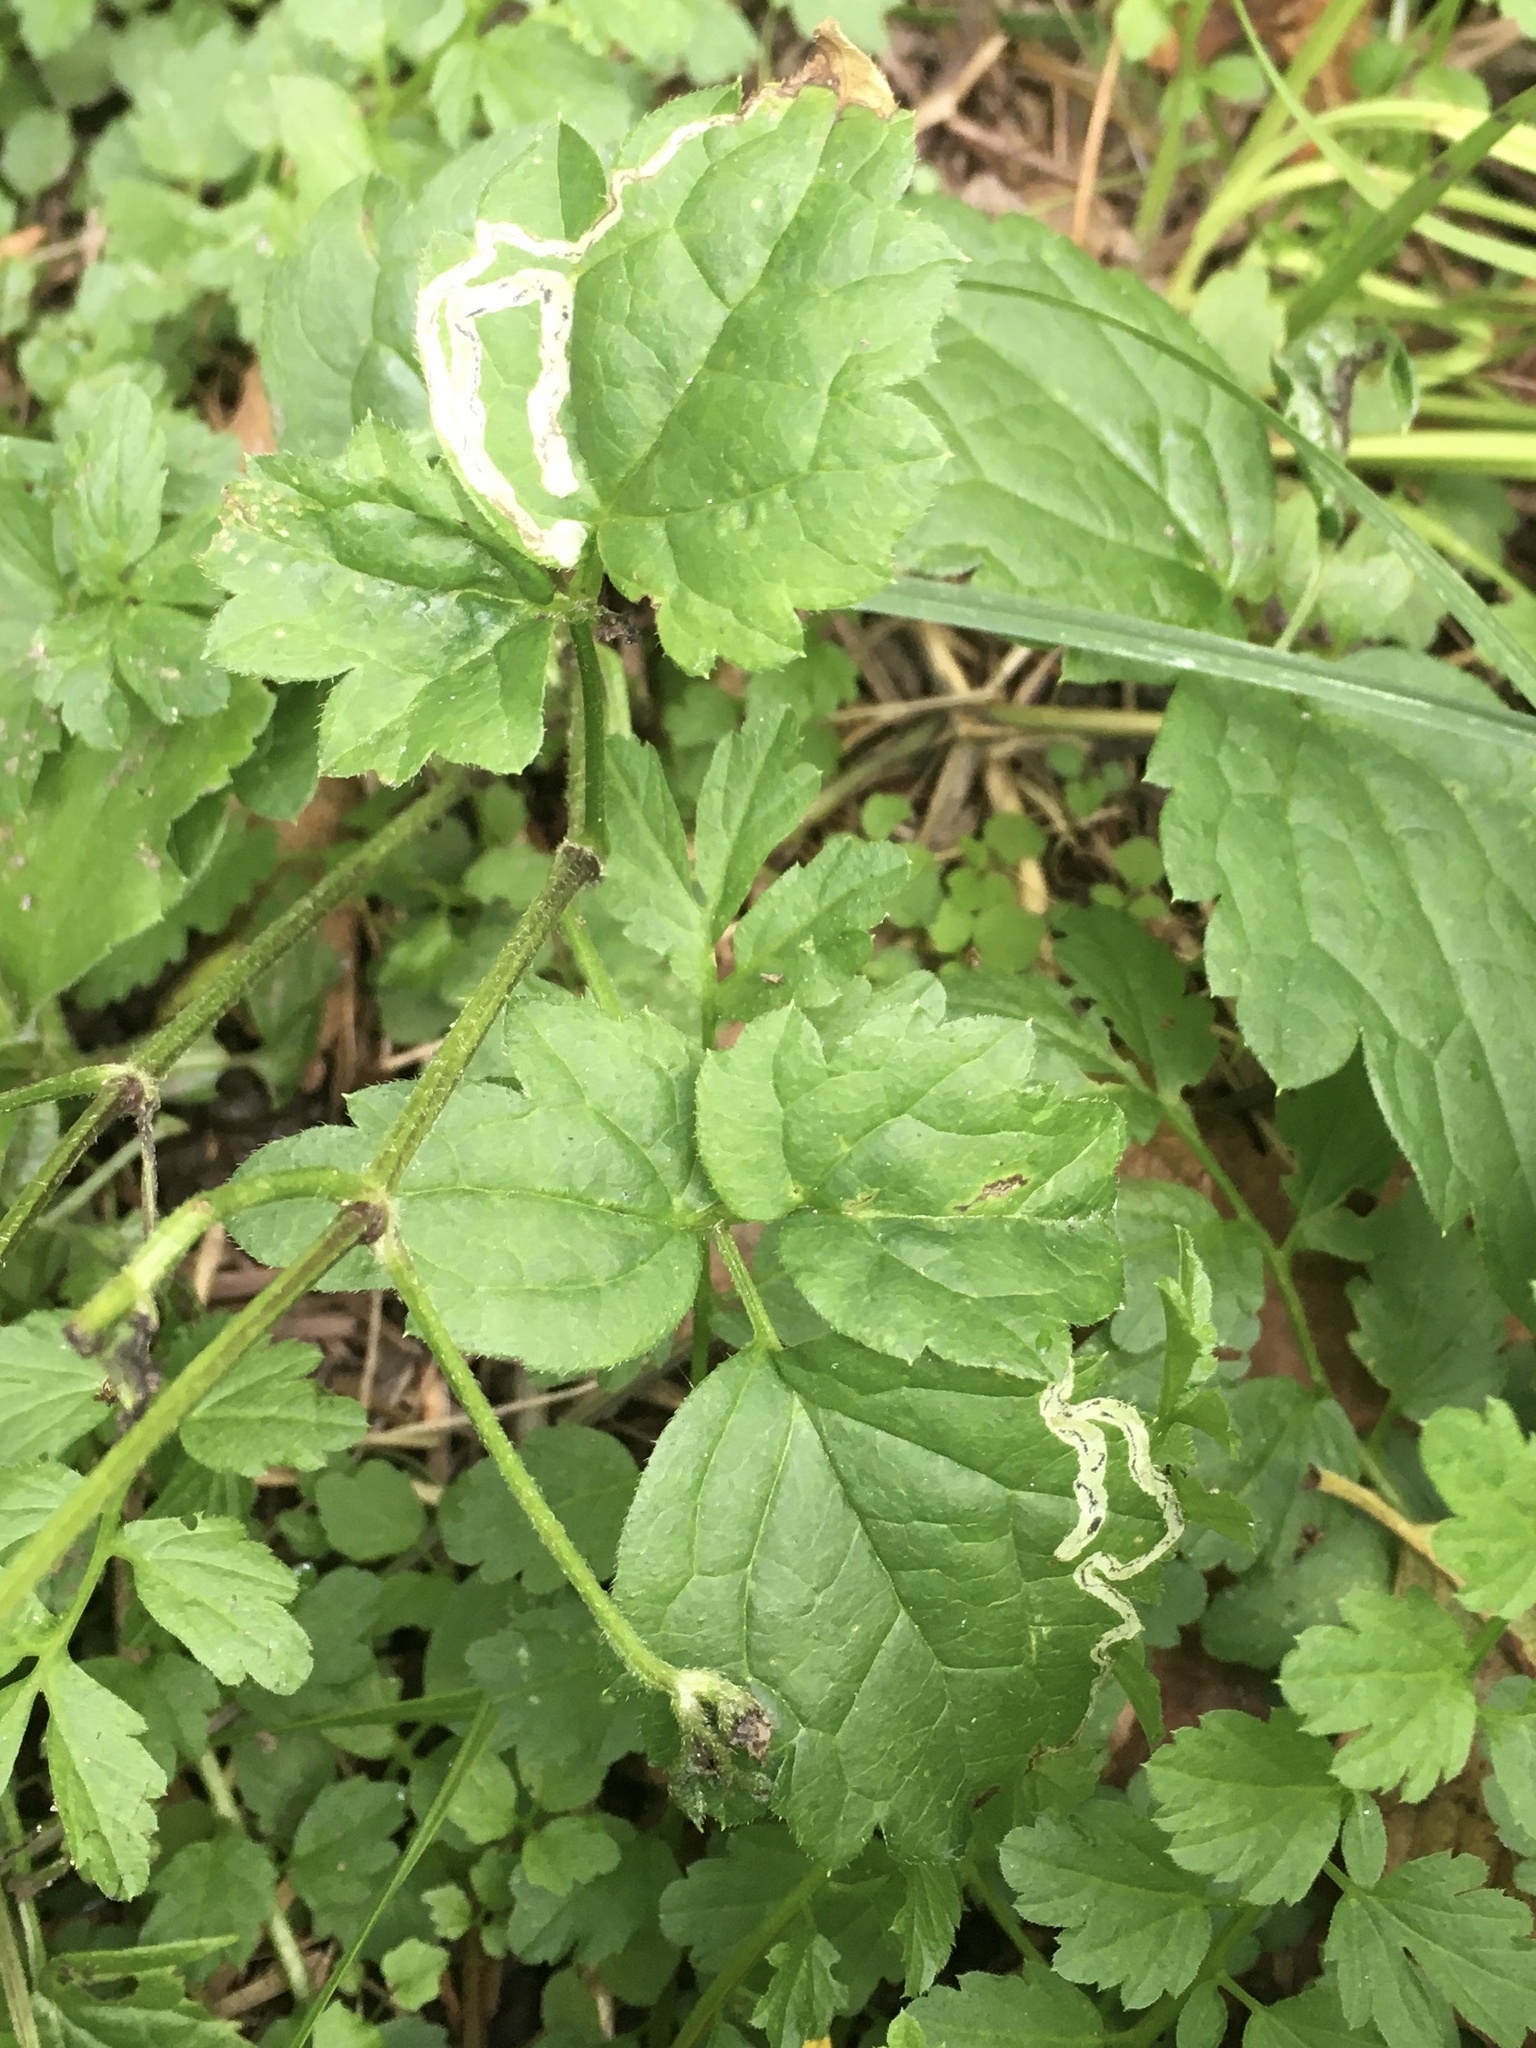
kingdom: Animalia
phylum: Arthropoda
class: Insecta
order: Diptera
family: Agromyzidae
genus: Phytomyza
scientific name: Phytomyza loewii
